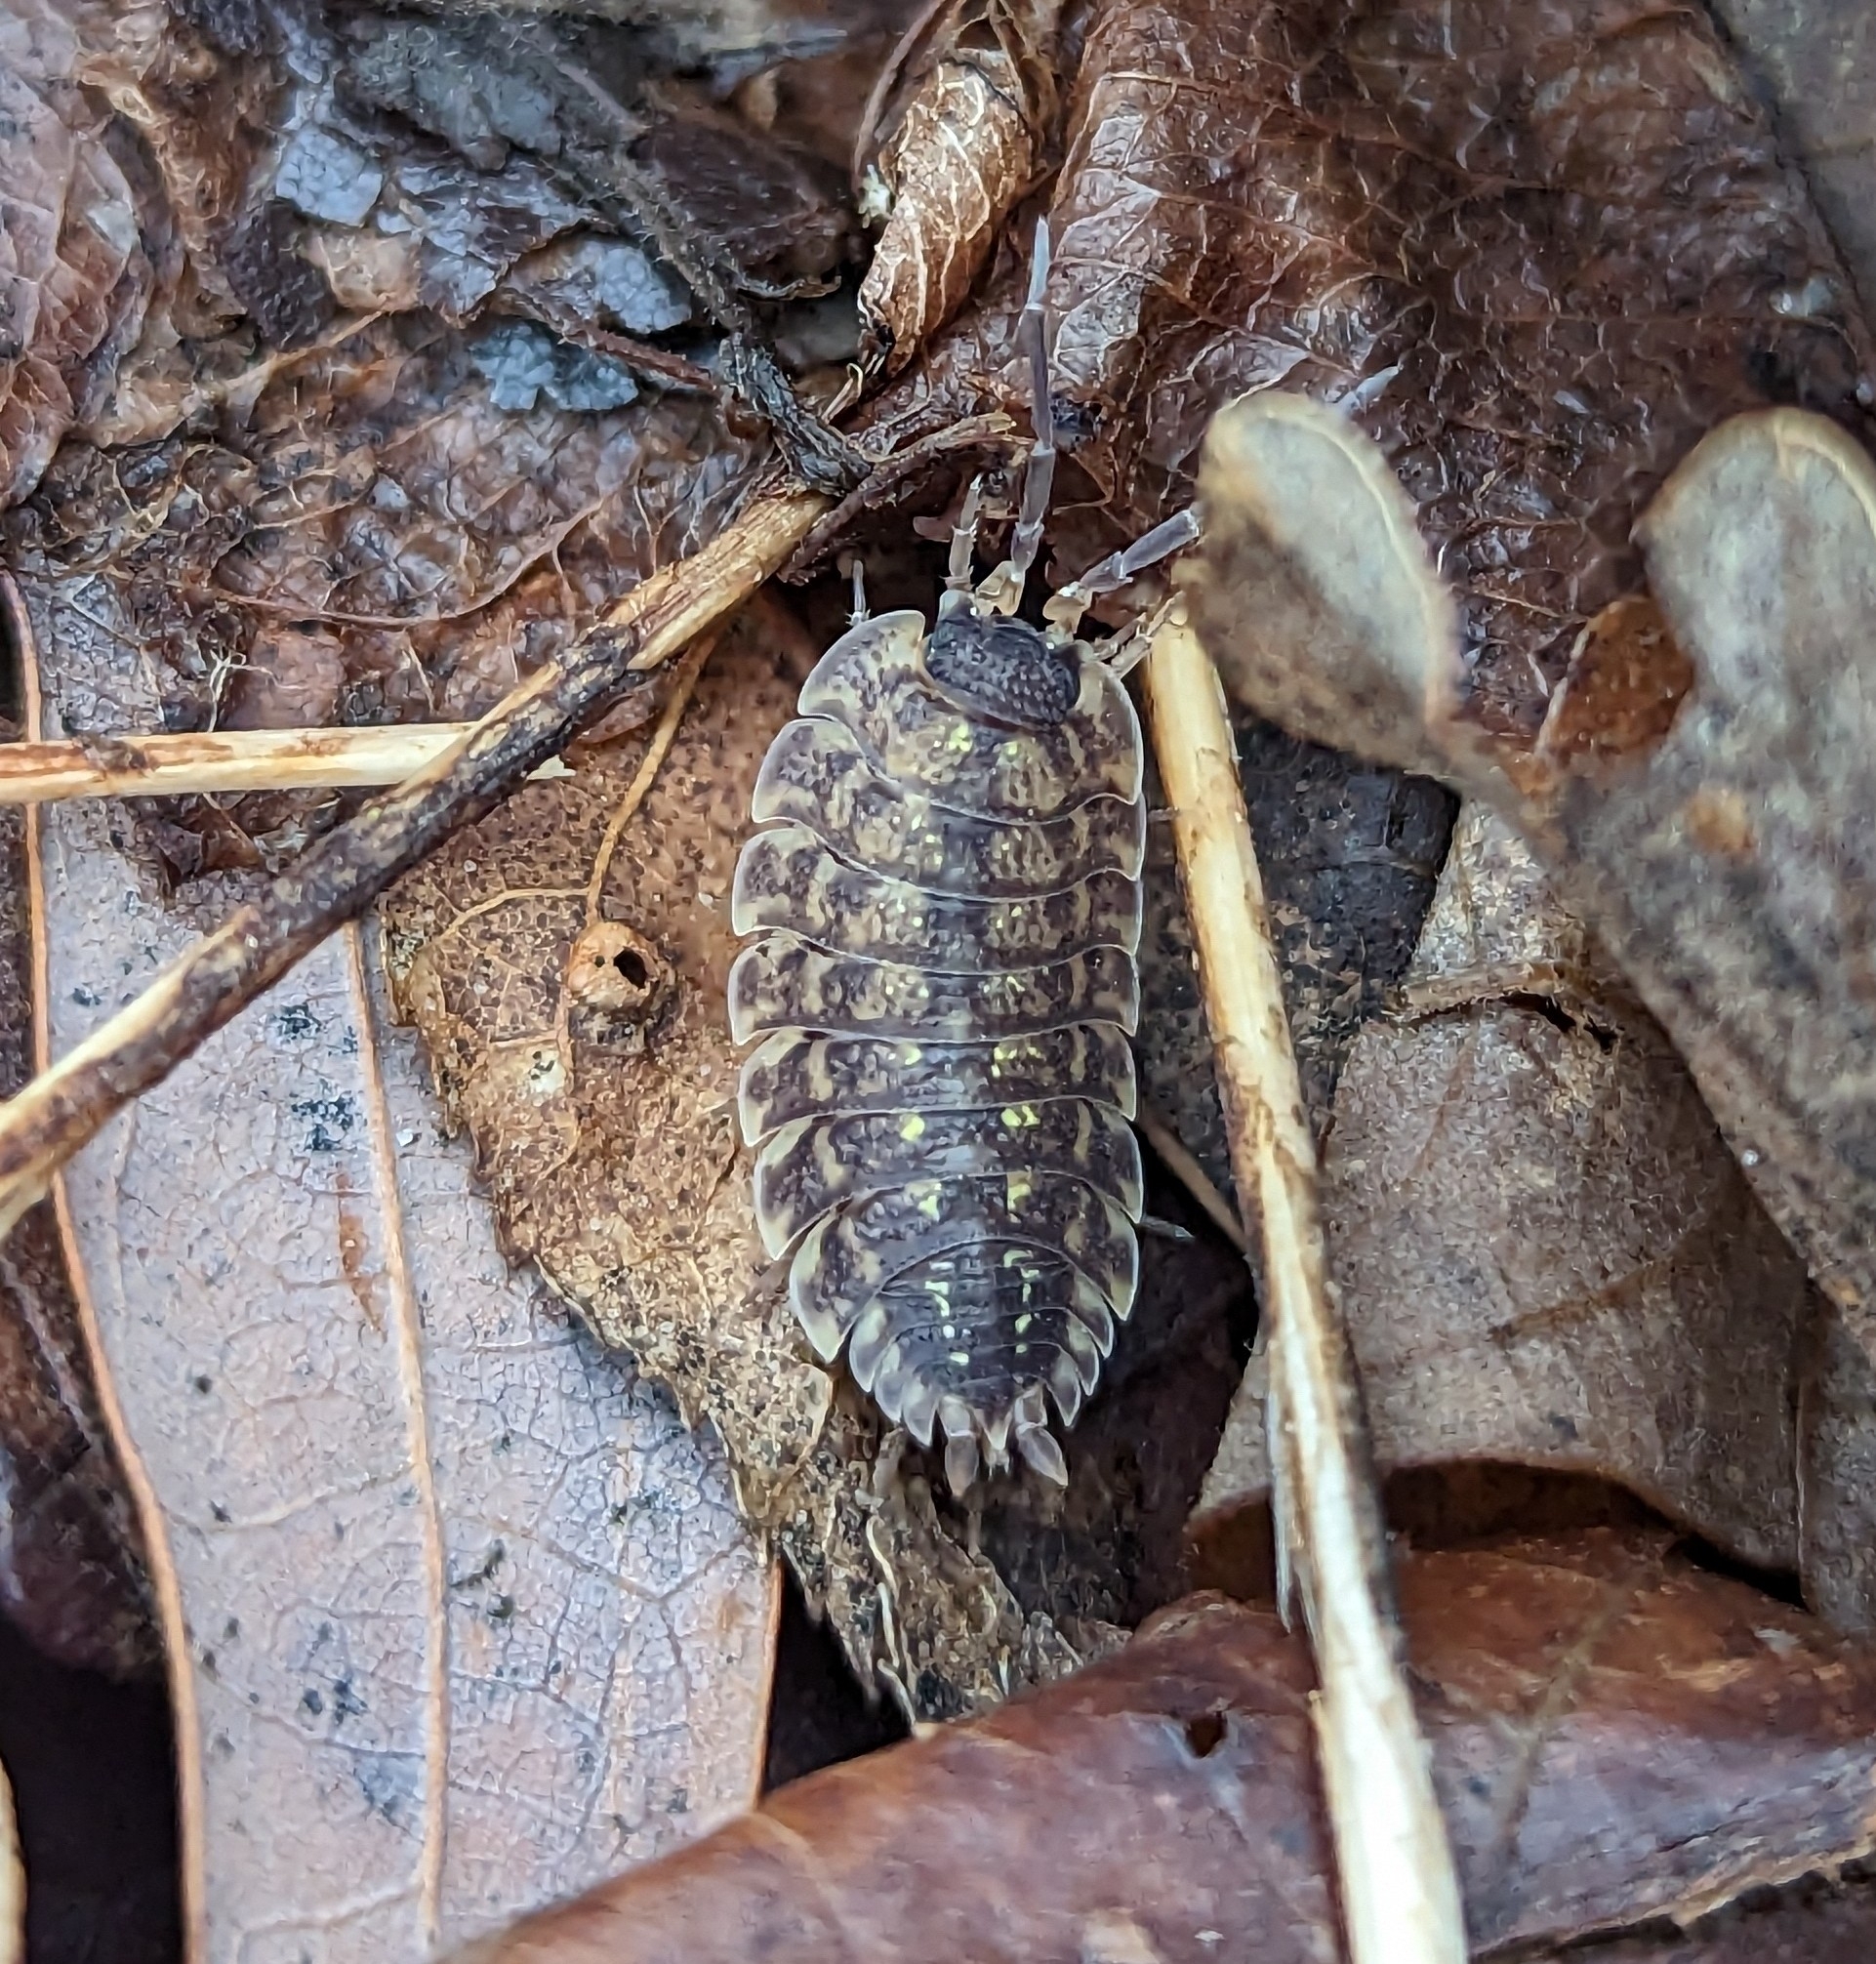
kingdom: Animalia
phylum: Arthropoda
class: Malacostraca
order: Isopoda
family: Porcellionidae
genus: Porcellio
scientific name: Porcellio spinicornis
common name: Painted woodlouse
